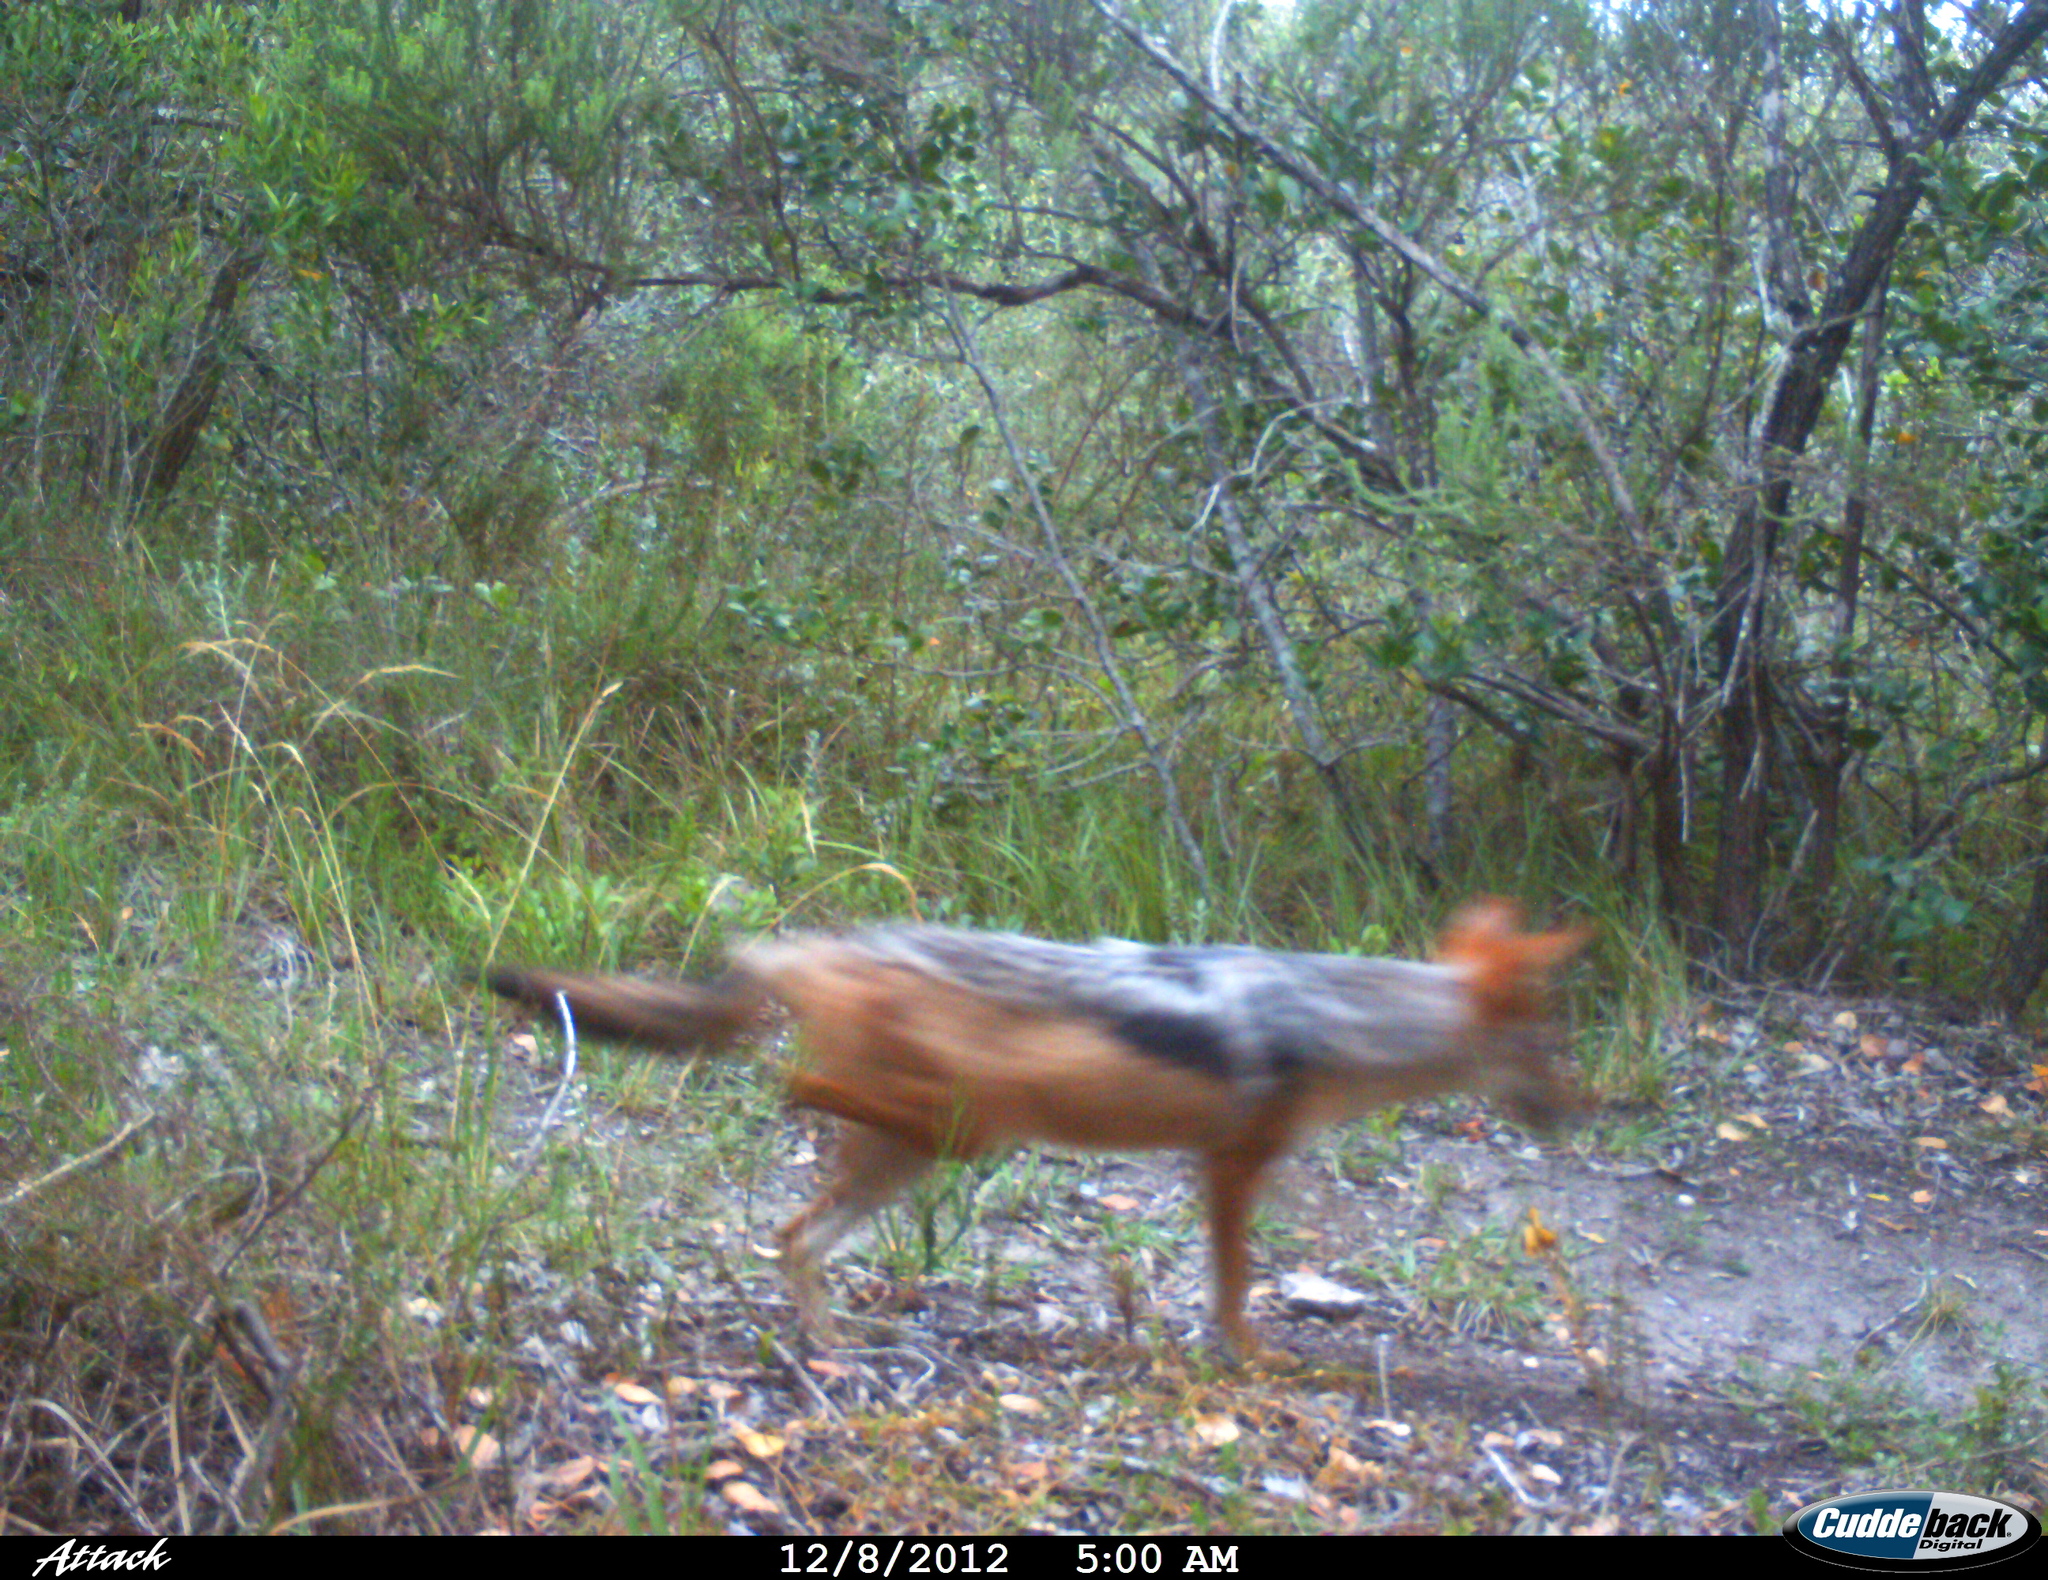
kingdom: Animalia
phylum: Chordata
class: Mammalia
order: Carnivora
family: Canidae
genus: Lupulella
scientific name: Lupulella
